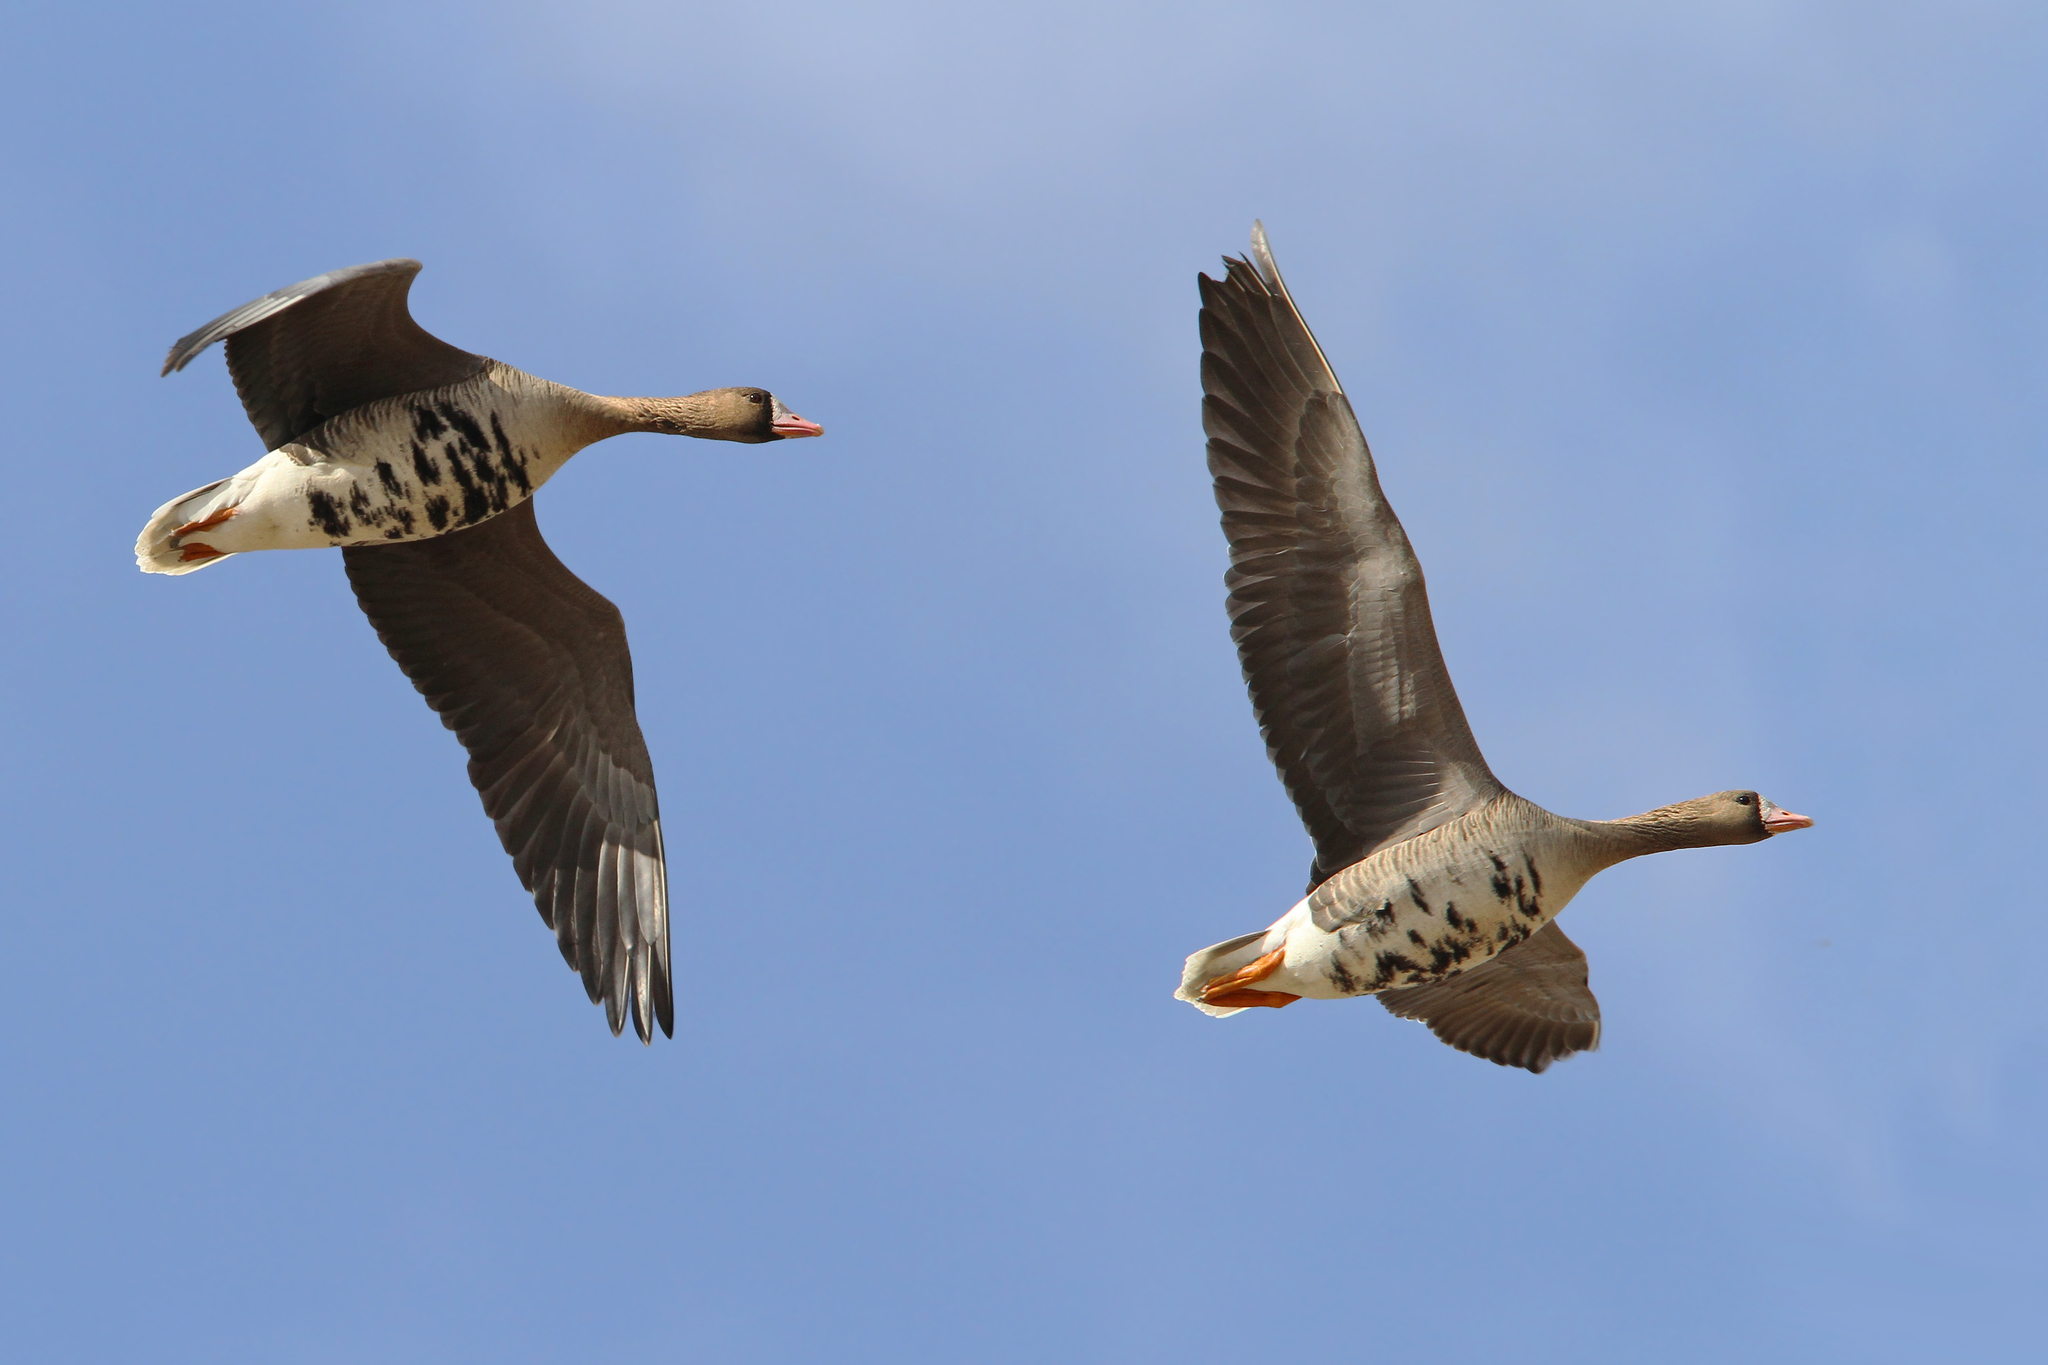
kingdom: Animalia
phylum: Chordata
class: Aves
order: Anseriformes
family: Anatidae
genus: Anser
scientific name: Anser albifrons
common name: Greater white-fronted goose
